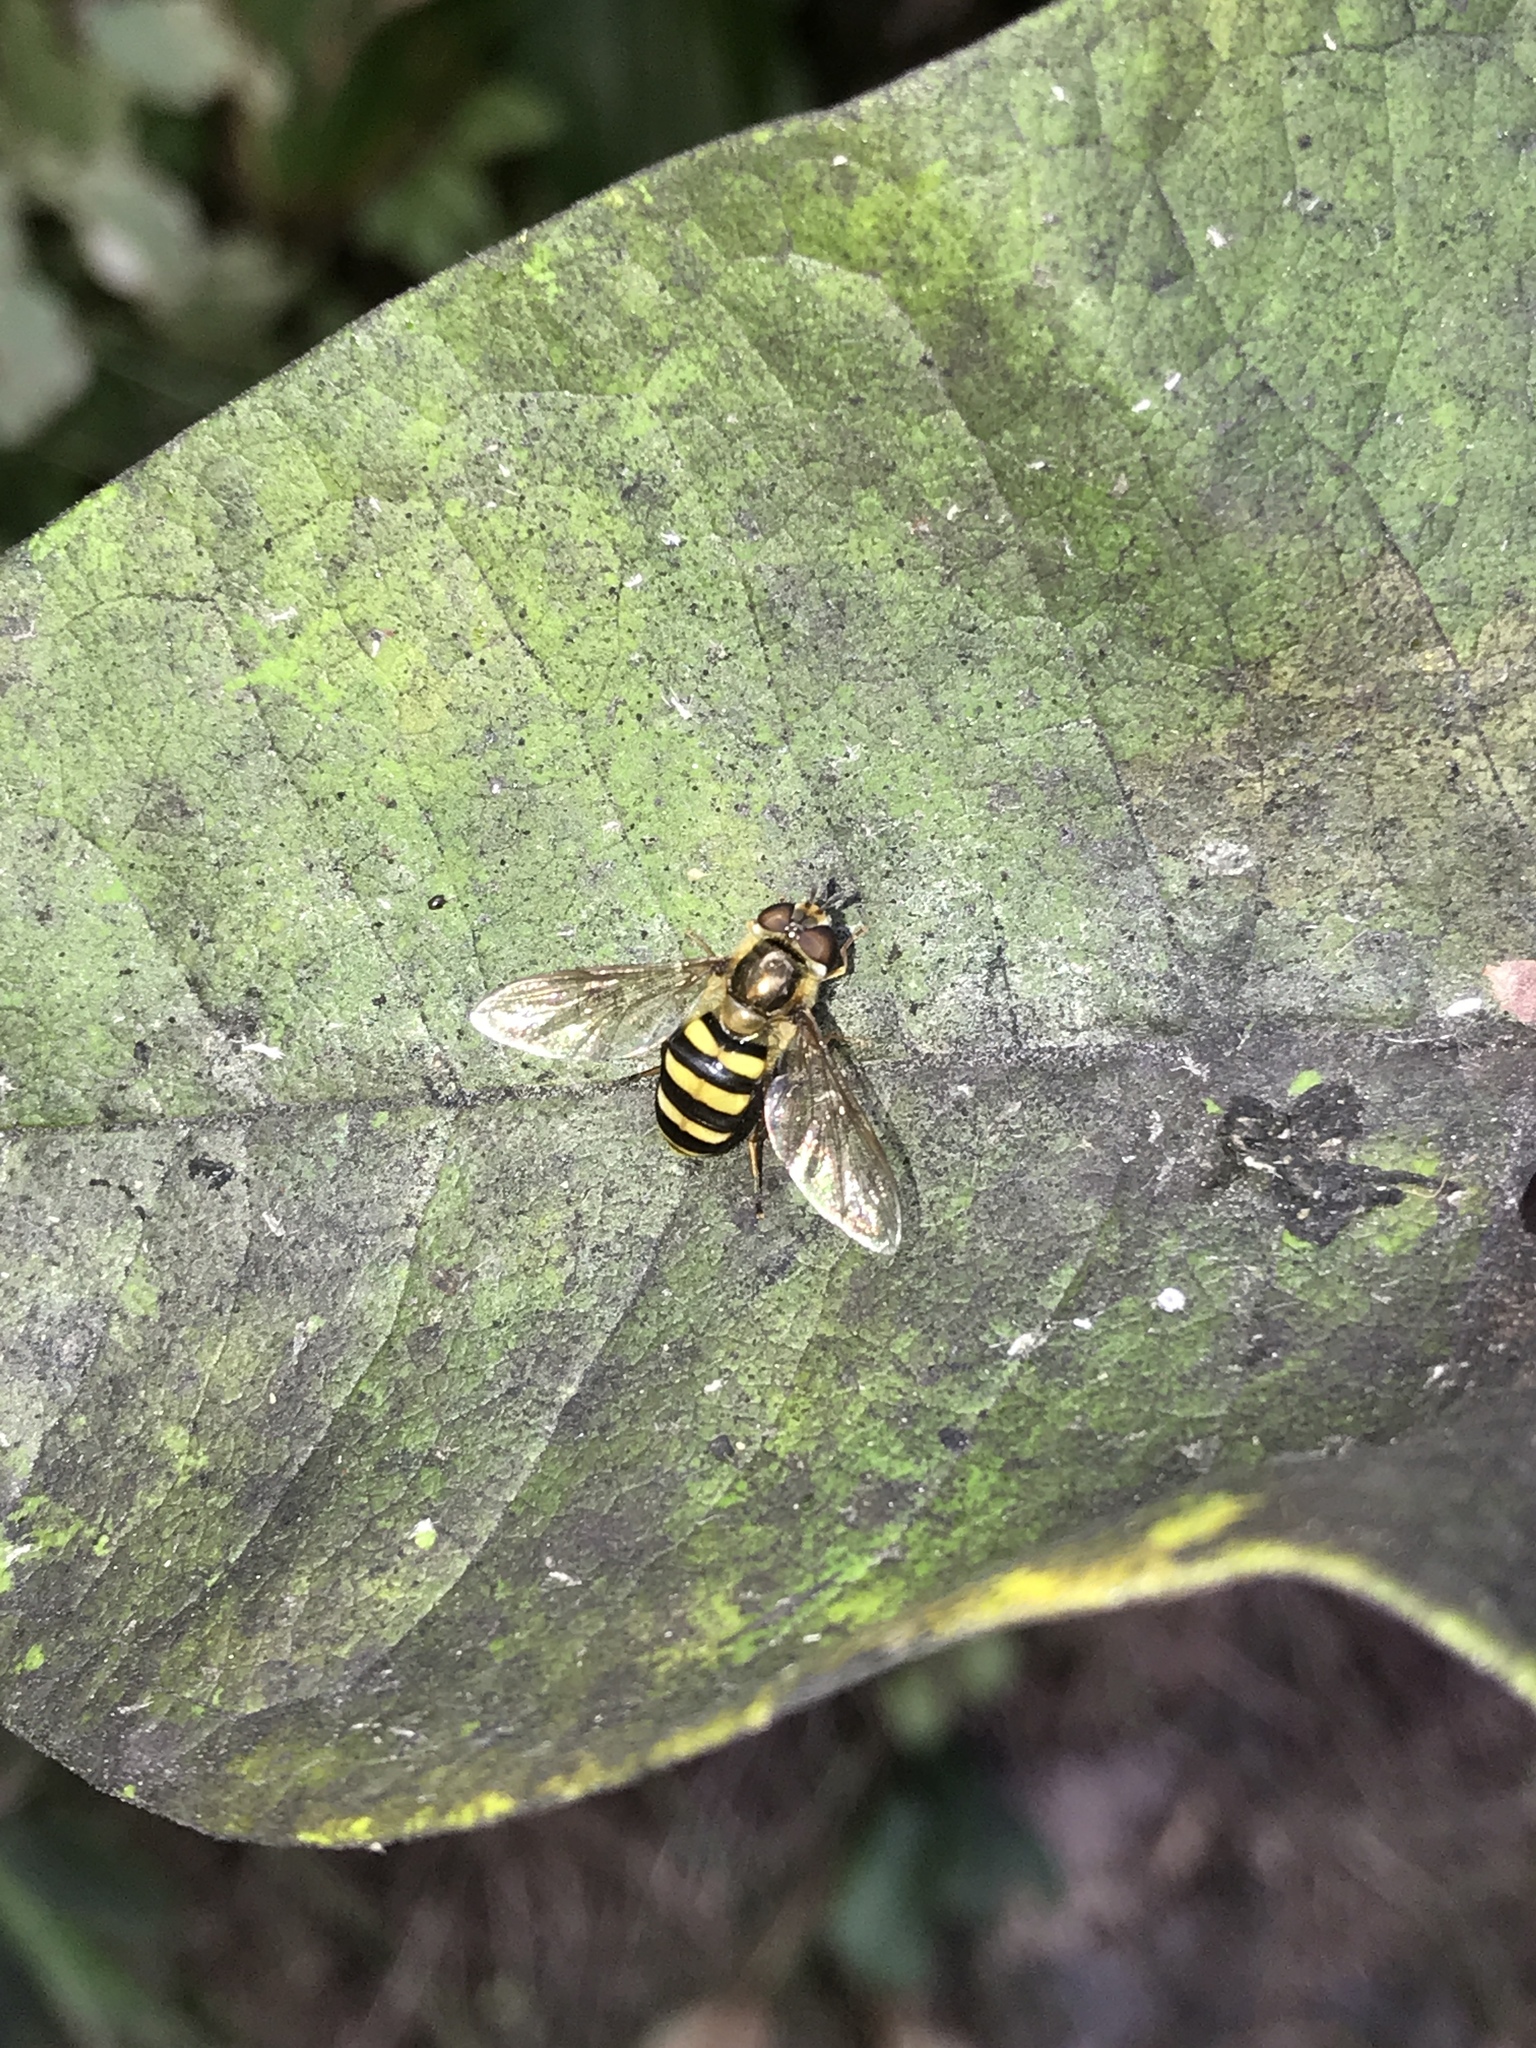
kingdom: Animalia
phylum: Arthropoda
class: Insecta
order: Diptera
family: Syrphidae
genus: Eupeodes
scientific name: Eupeodes
